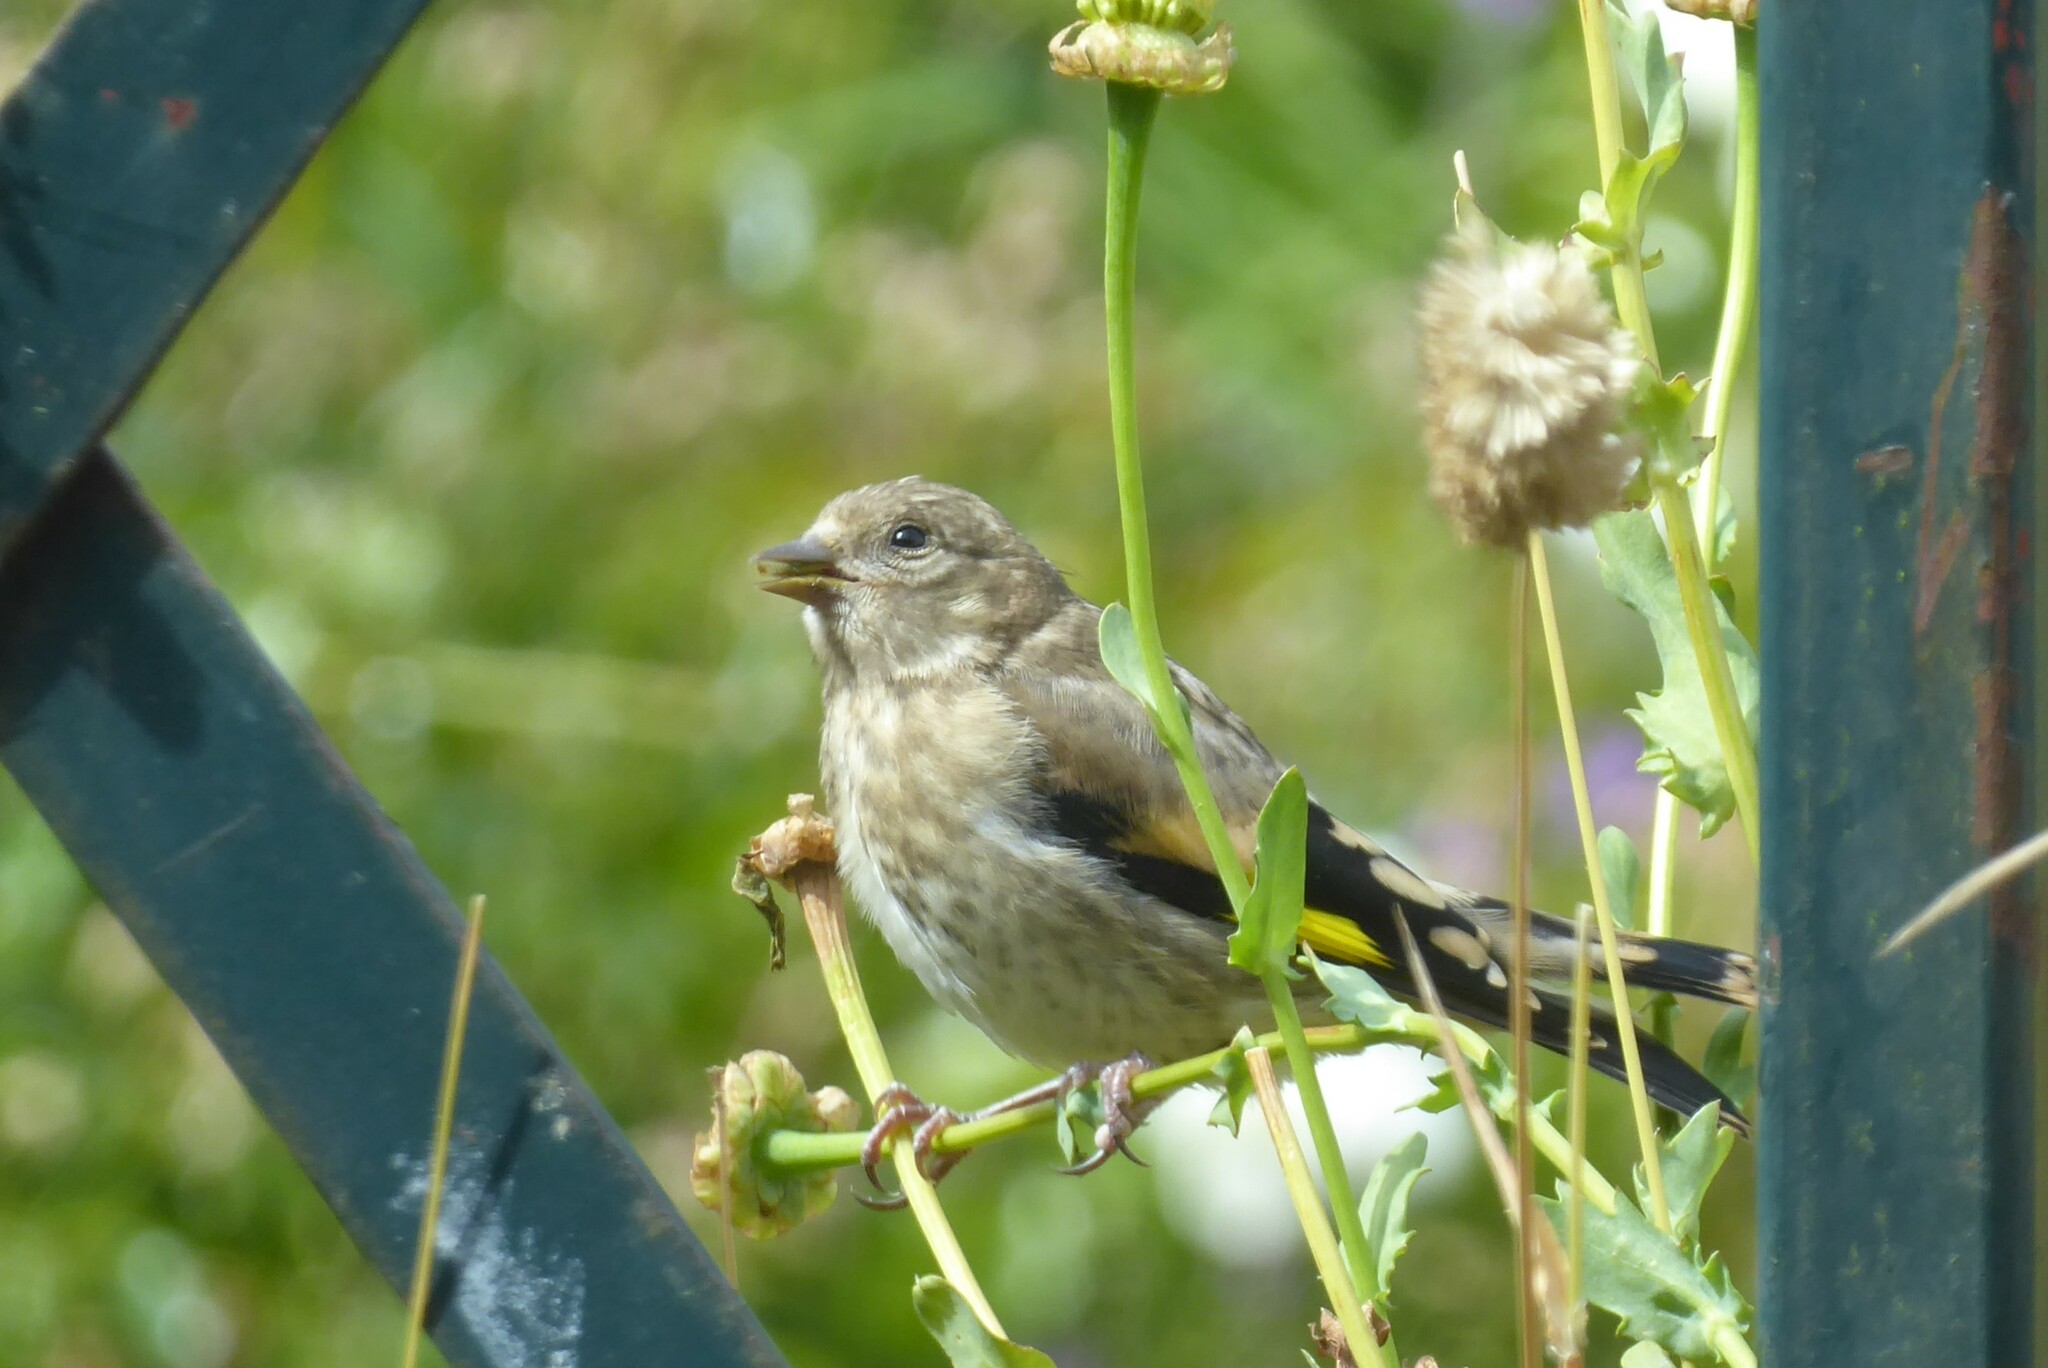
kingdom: Animalia
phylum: Chordata
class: Aves
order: Passeriformes
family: Fringillidae
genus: Carduelis
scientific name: Carduelis carduelis
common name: European goldfinch
